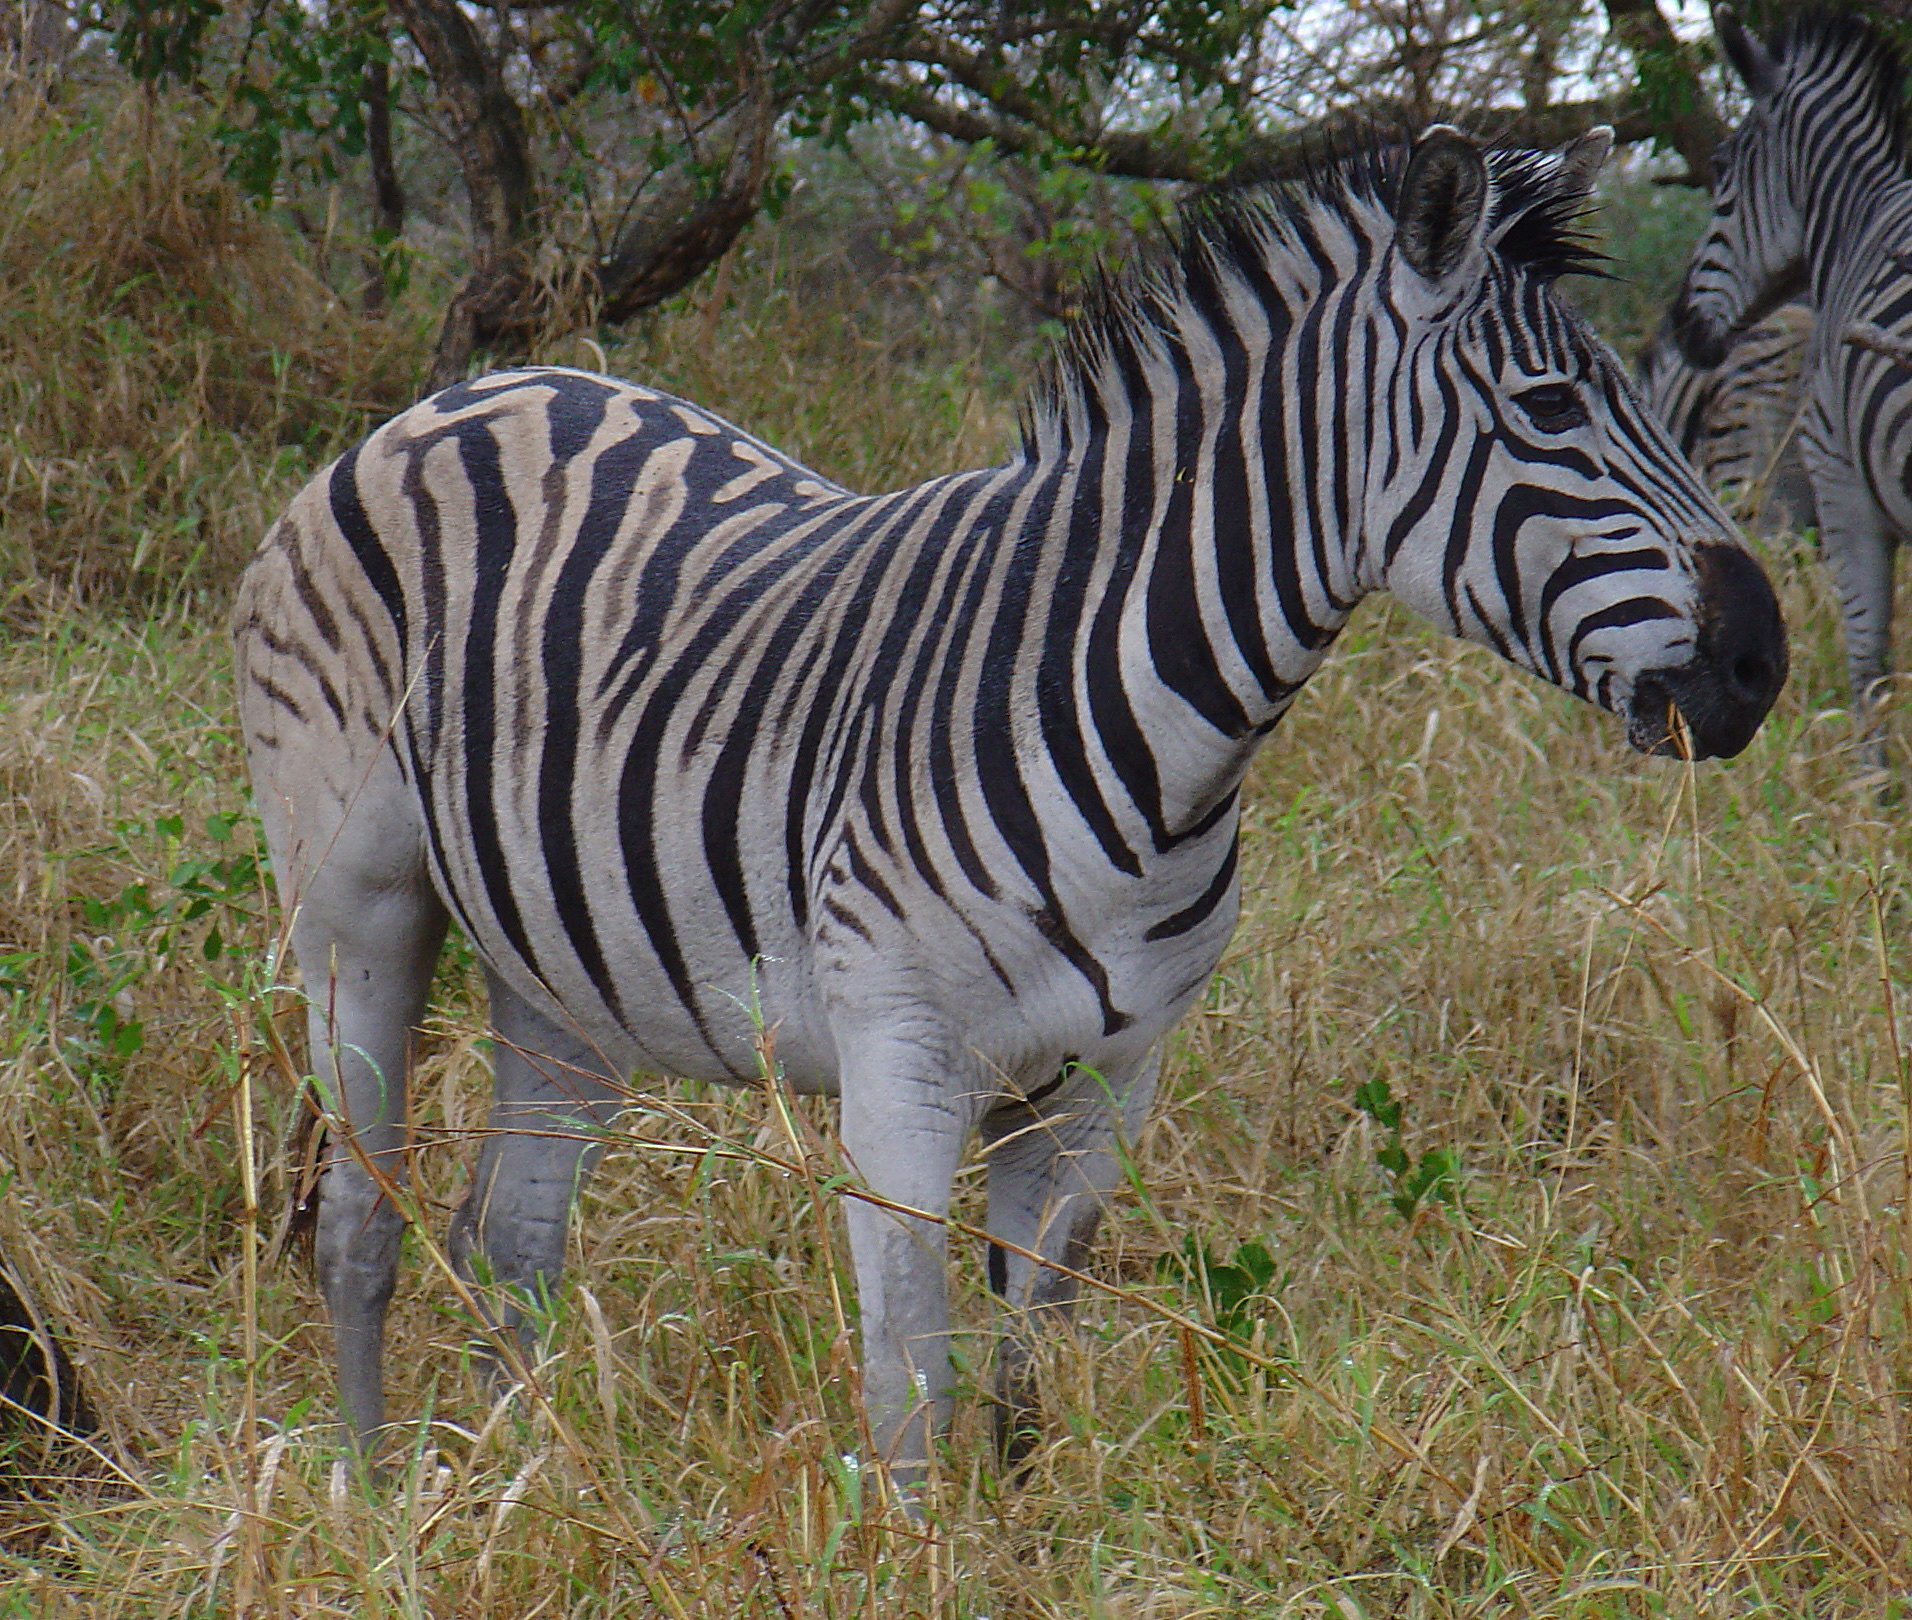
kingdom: Animalia
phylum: Chordata
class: Mammalia
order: Perissodactyla
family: Equidae
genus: Equus
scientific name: Equus quagga
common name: Plains zebra
